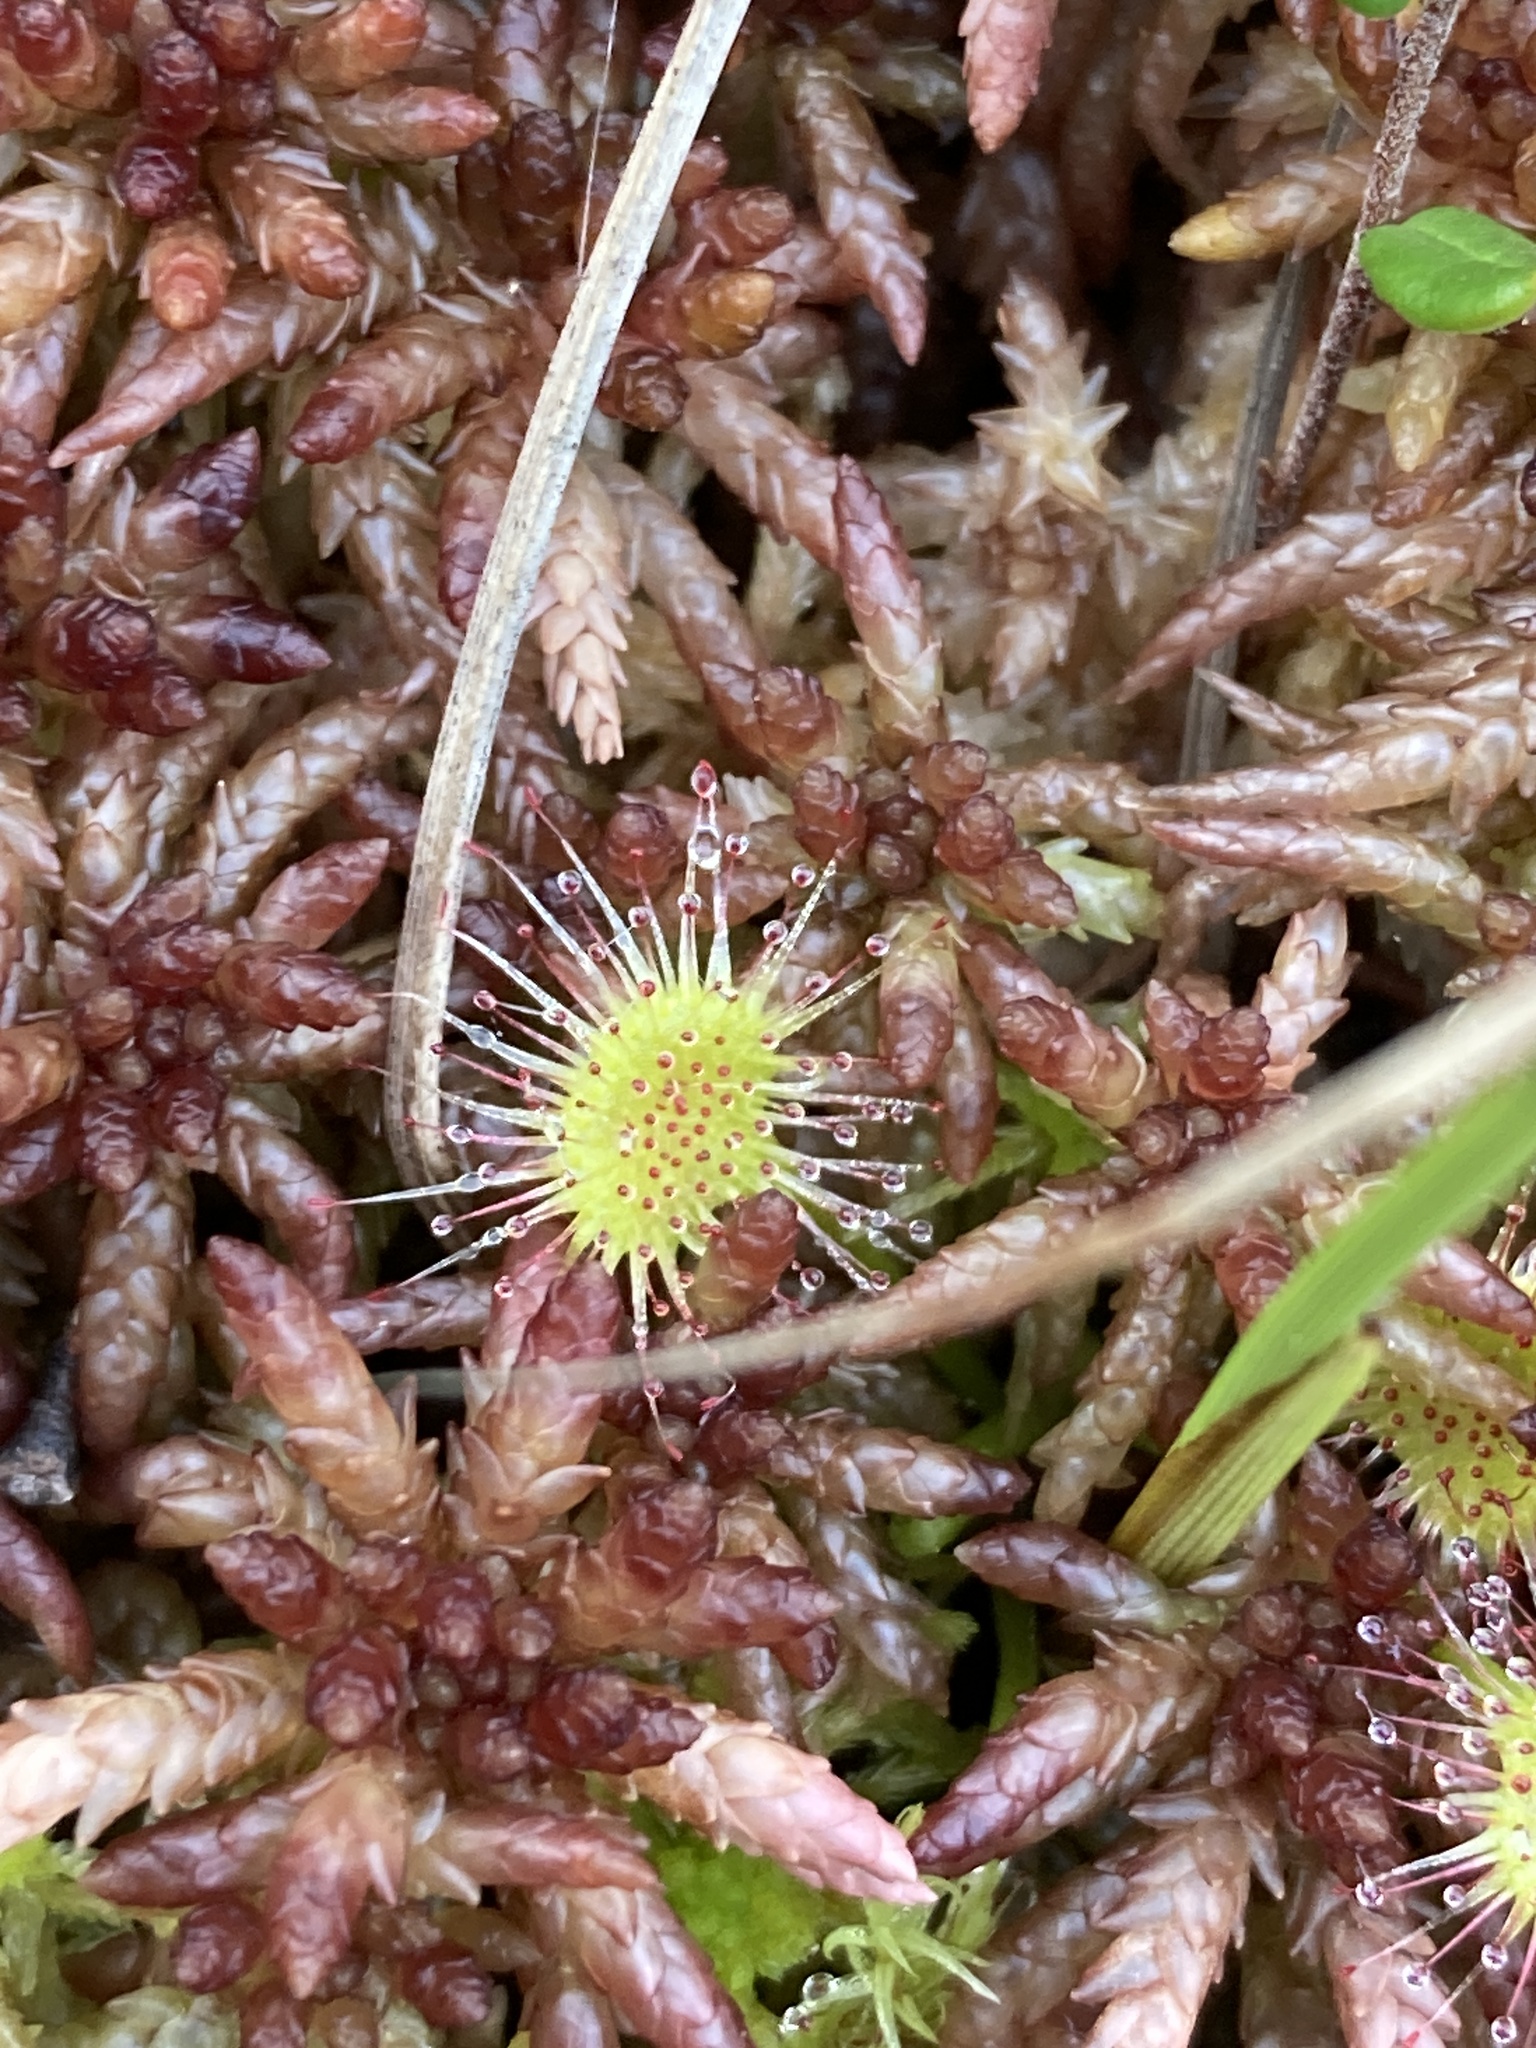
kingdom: Plantae
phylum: Tracheophyta
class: Magnoliopsida
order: Caryophyllales
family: Droseraceae
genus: Drosera
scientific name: Drosera rotundifolia
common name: Round-leaved sundew
